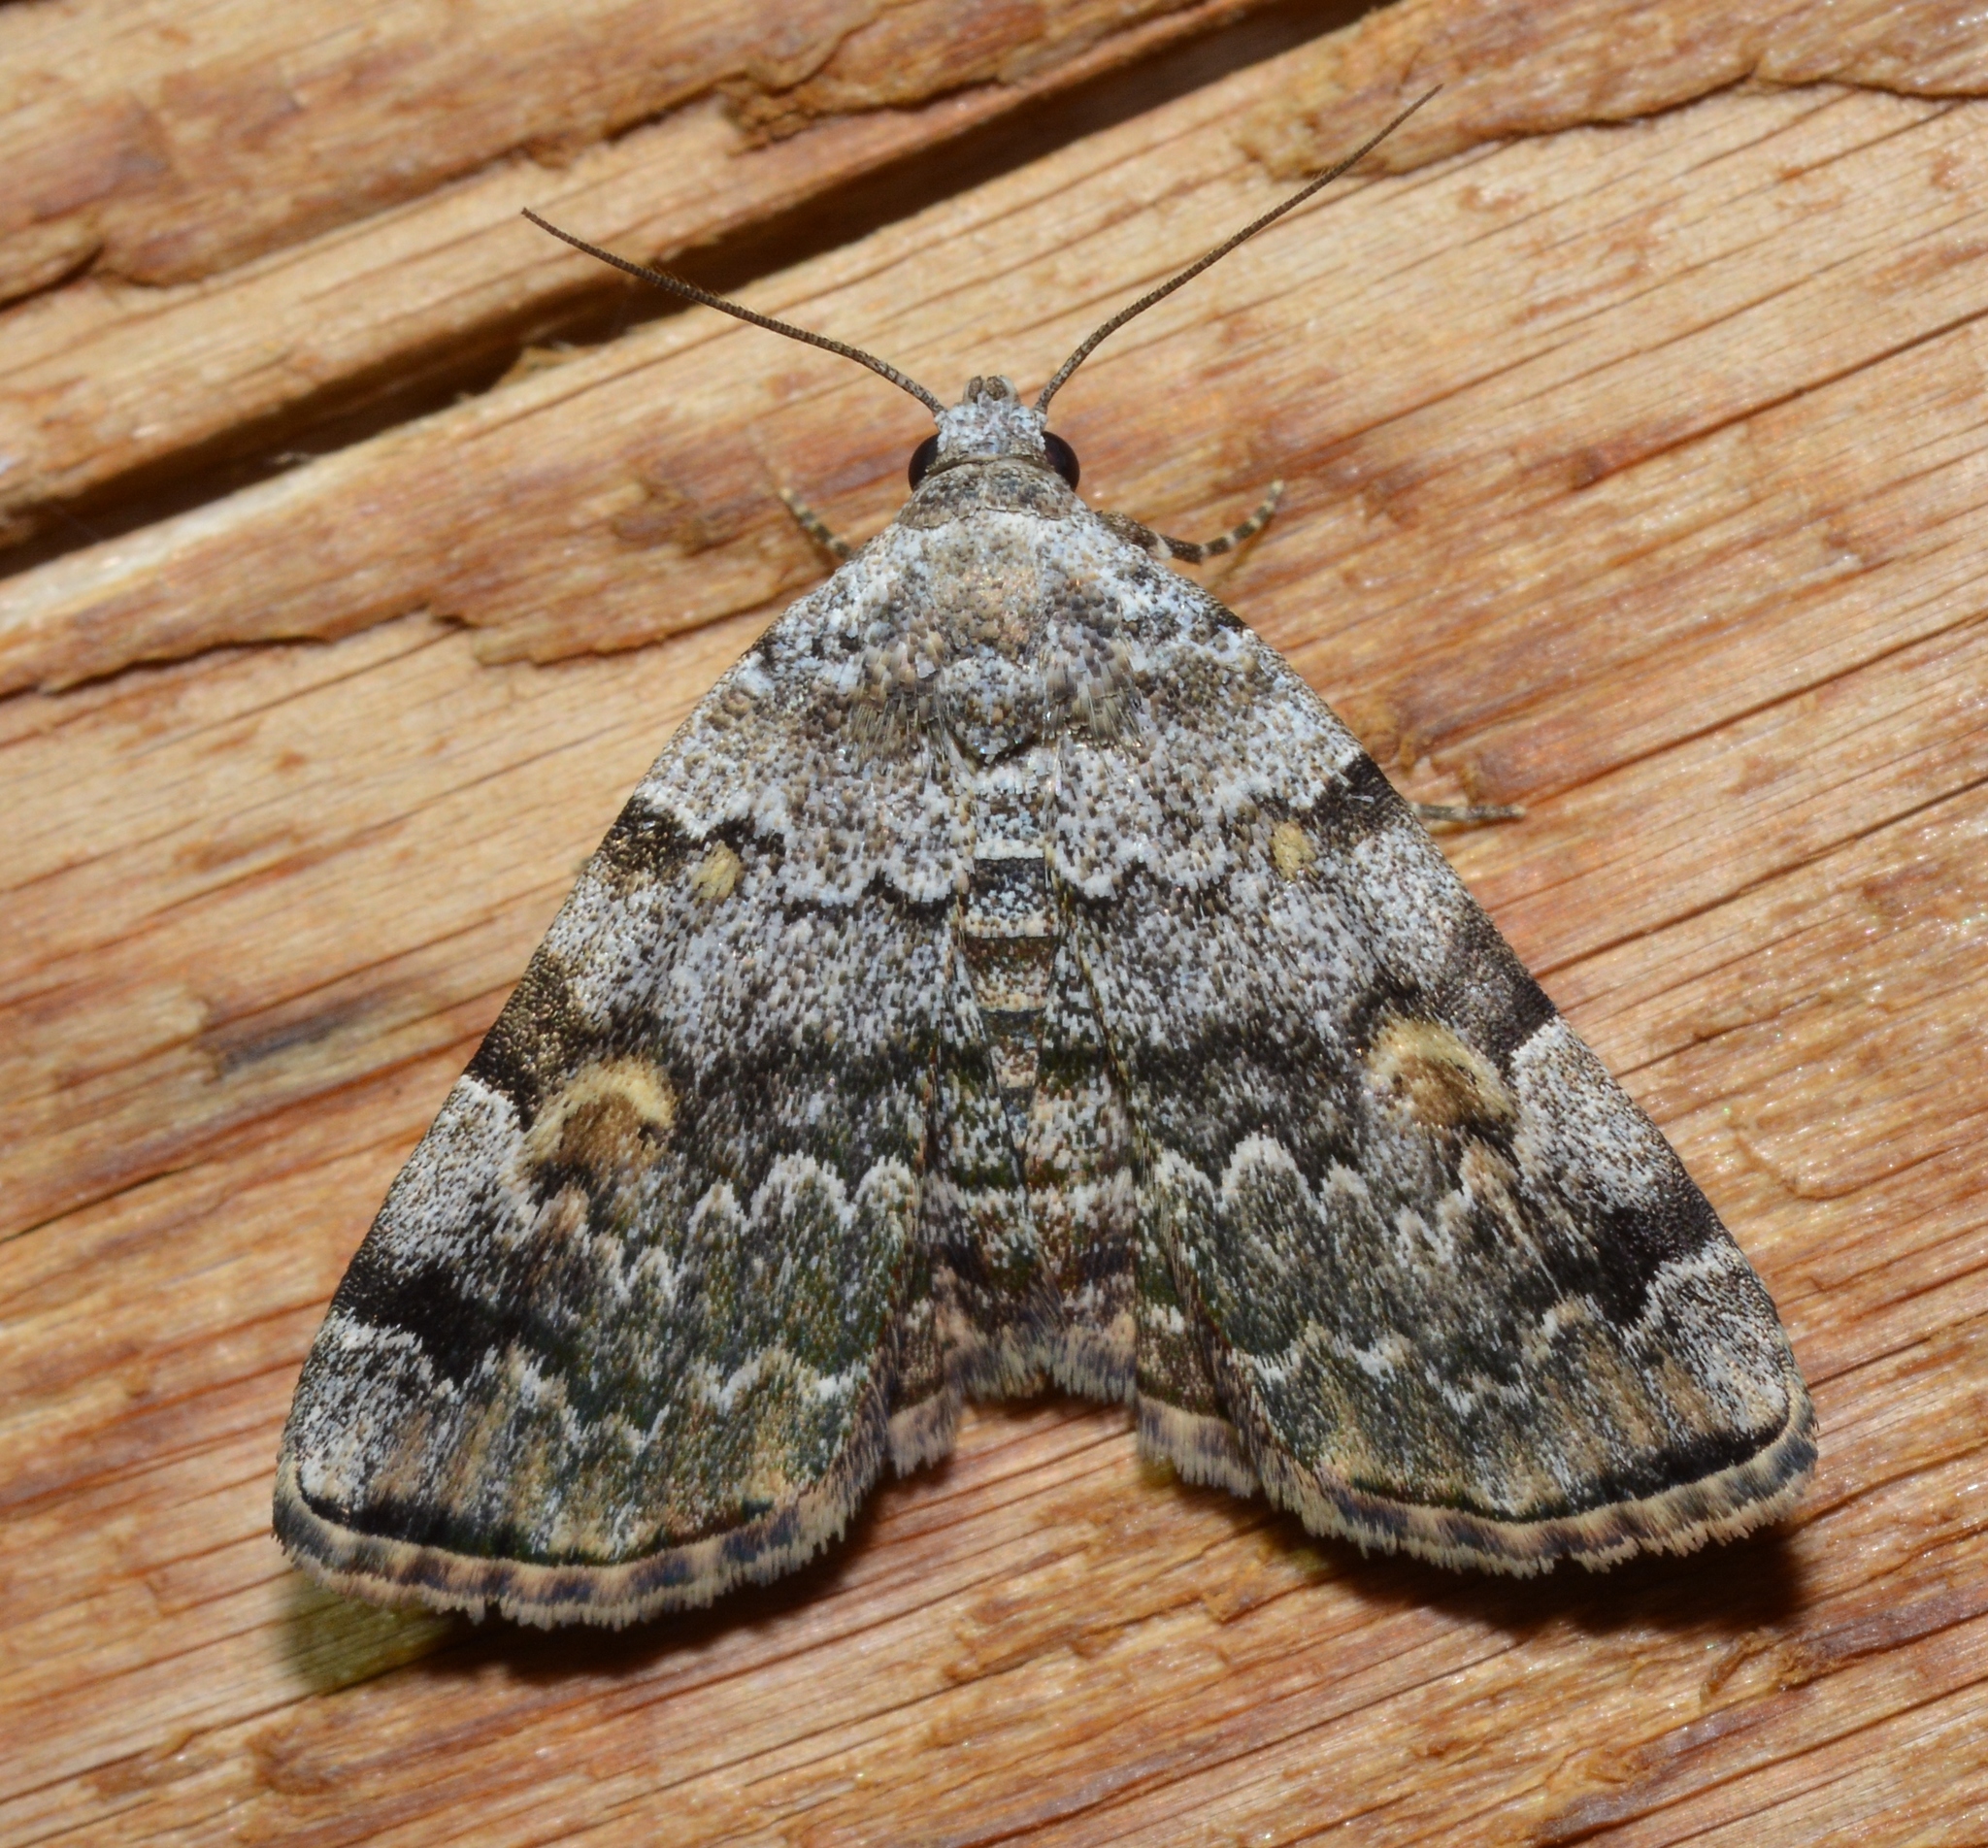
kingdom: Animalia
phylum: Arthropoda
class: Insecta
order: Lepidoptera
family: Erebidae
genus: Idia
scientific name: Idia americalis
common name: American idia moth
